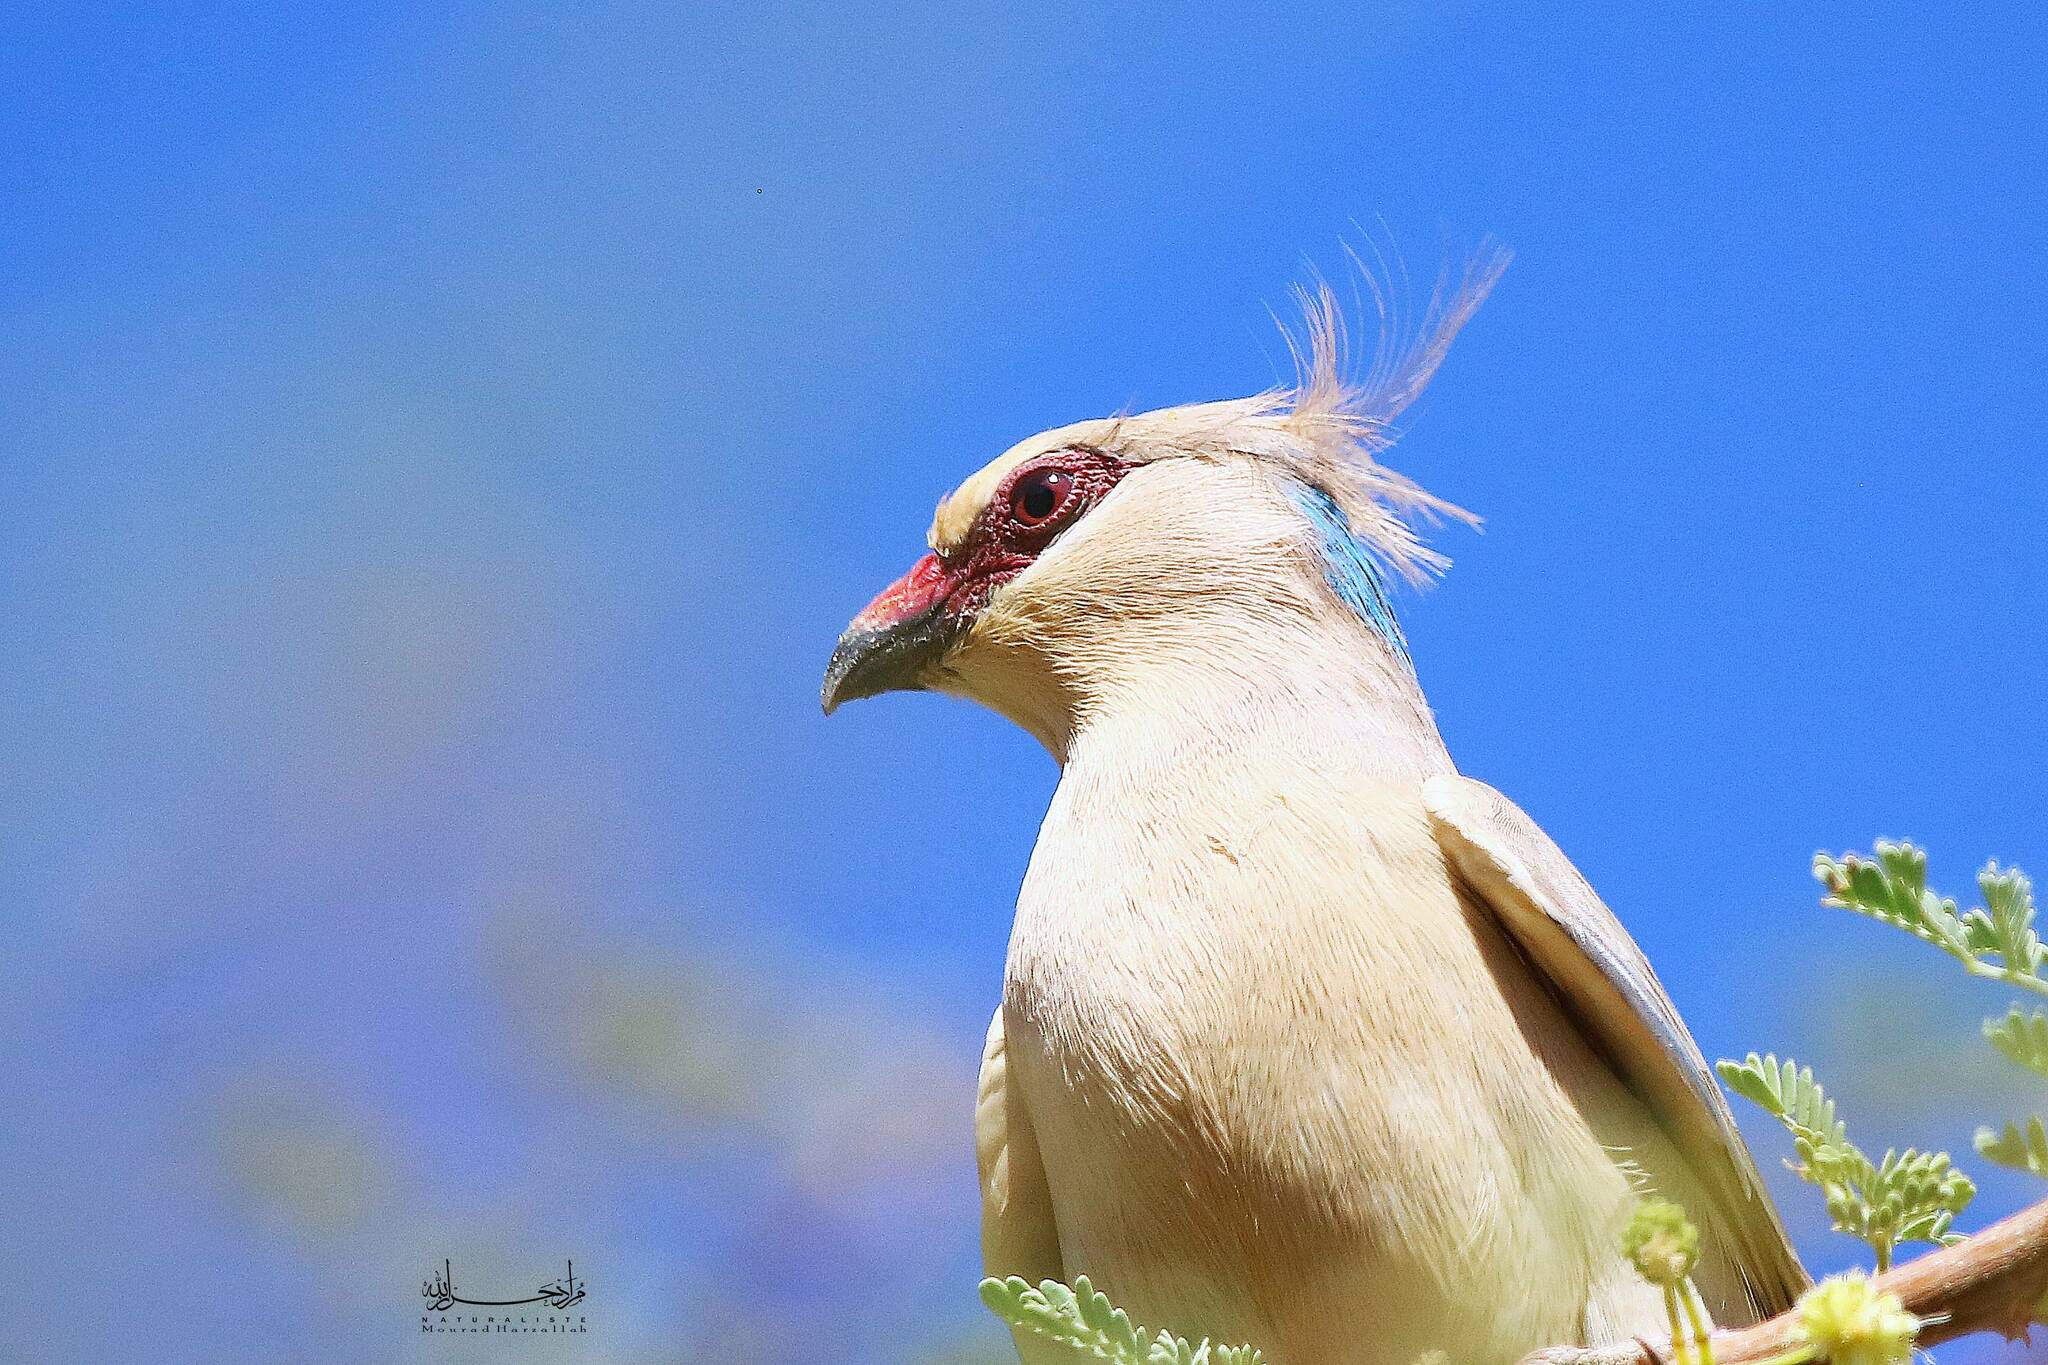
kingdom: Animalia
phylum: Chordata
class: Aves
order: Coliiformes
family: Coliidae
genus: Urocolius
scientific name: Urocolius macrourus
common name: Blue-naped mousebird
